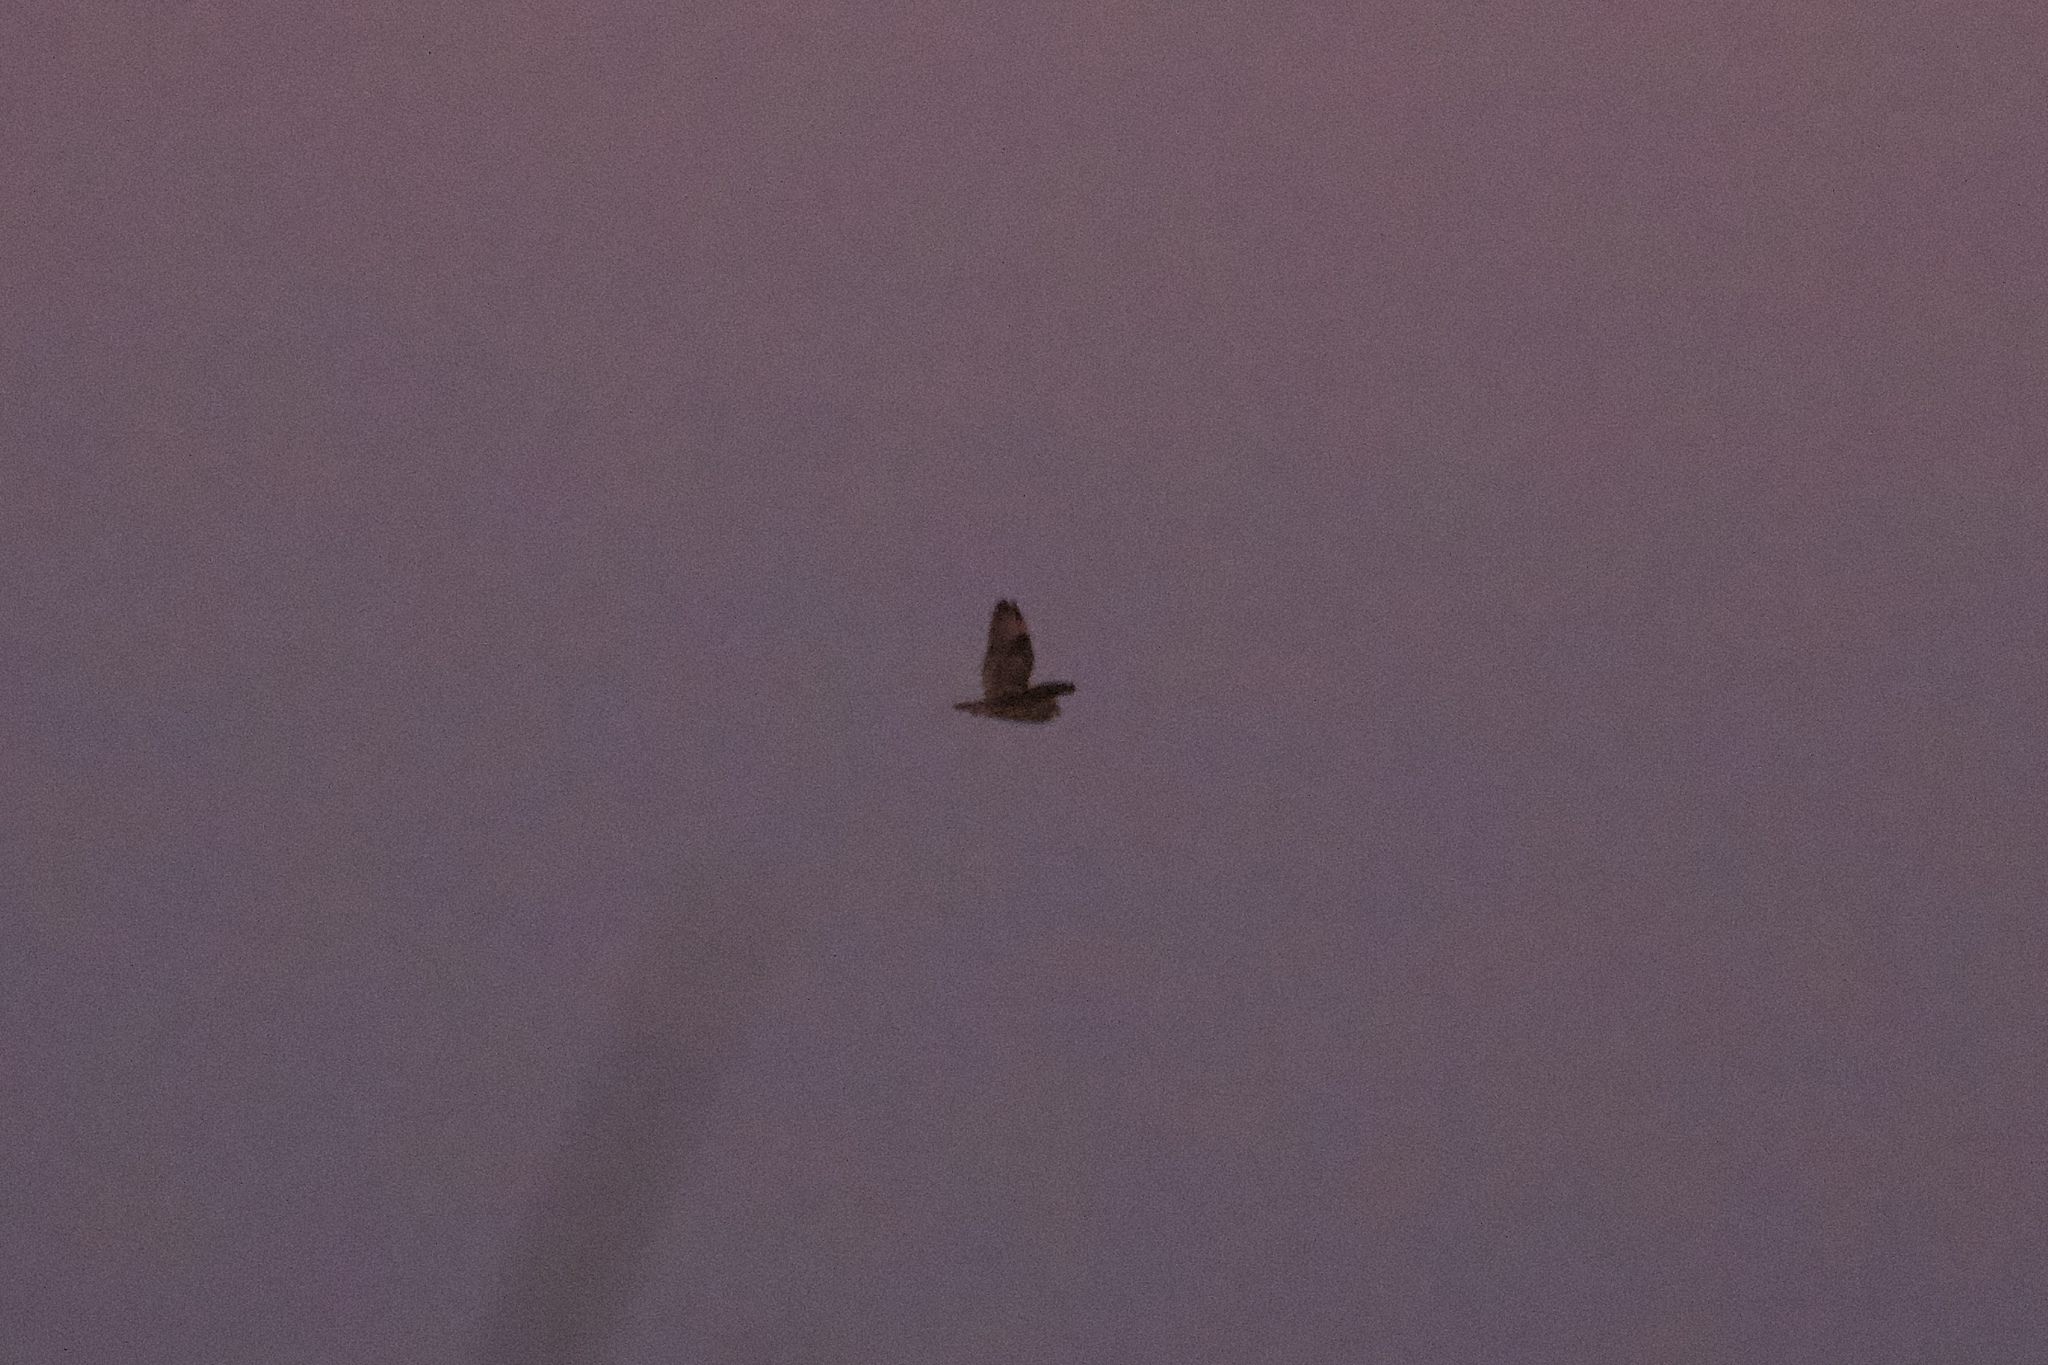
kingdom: Animalia
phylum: Chordata
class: Aves
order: Strigiformes
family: Strigidae
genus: Asio
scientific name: Asio flammeus
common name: Short-eared owl
